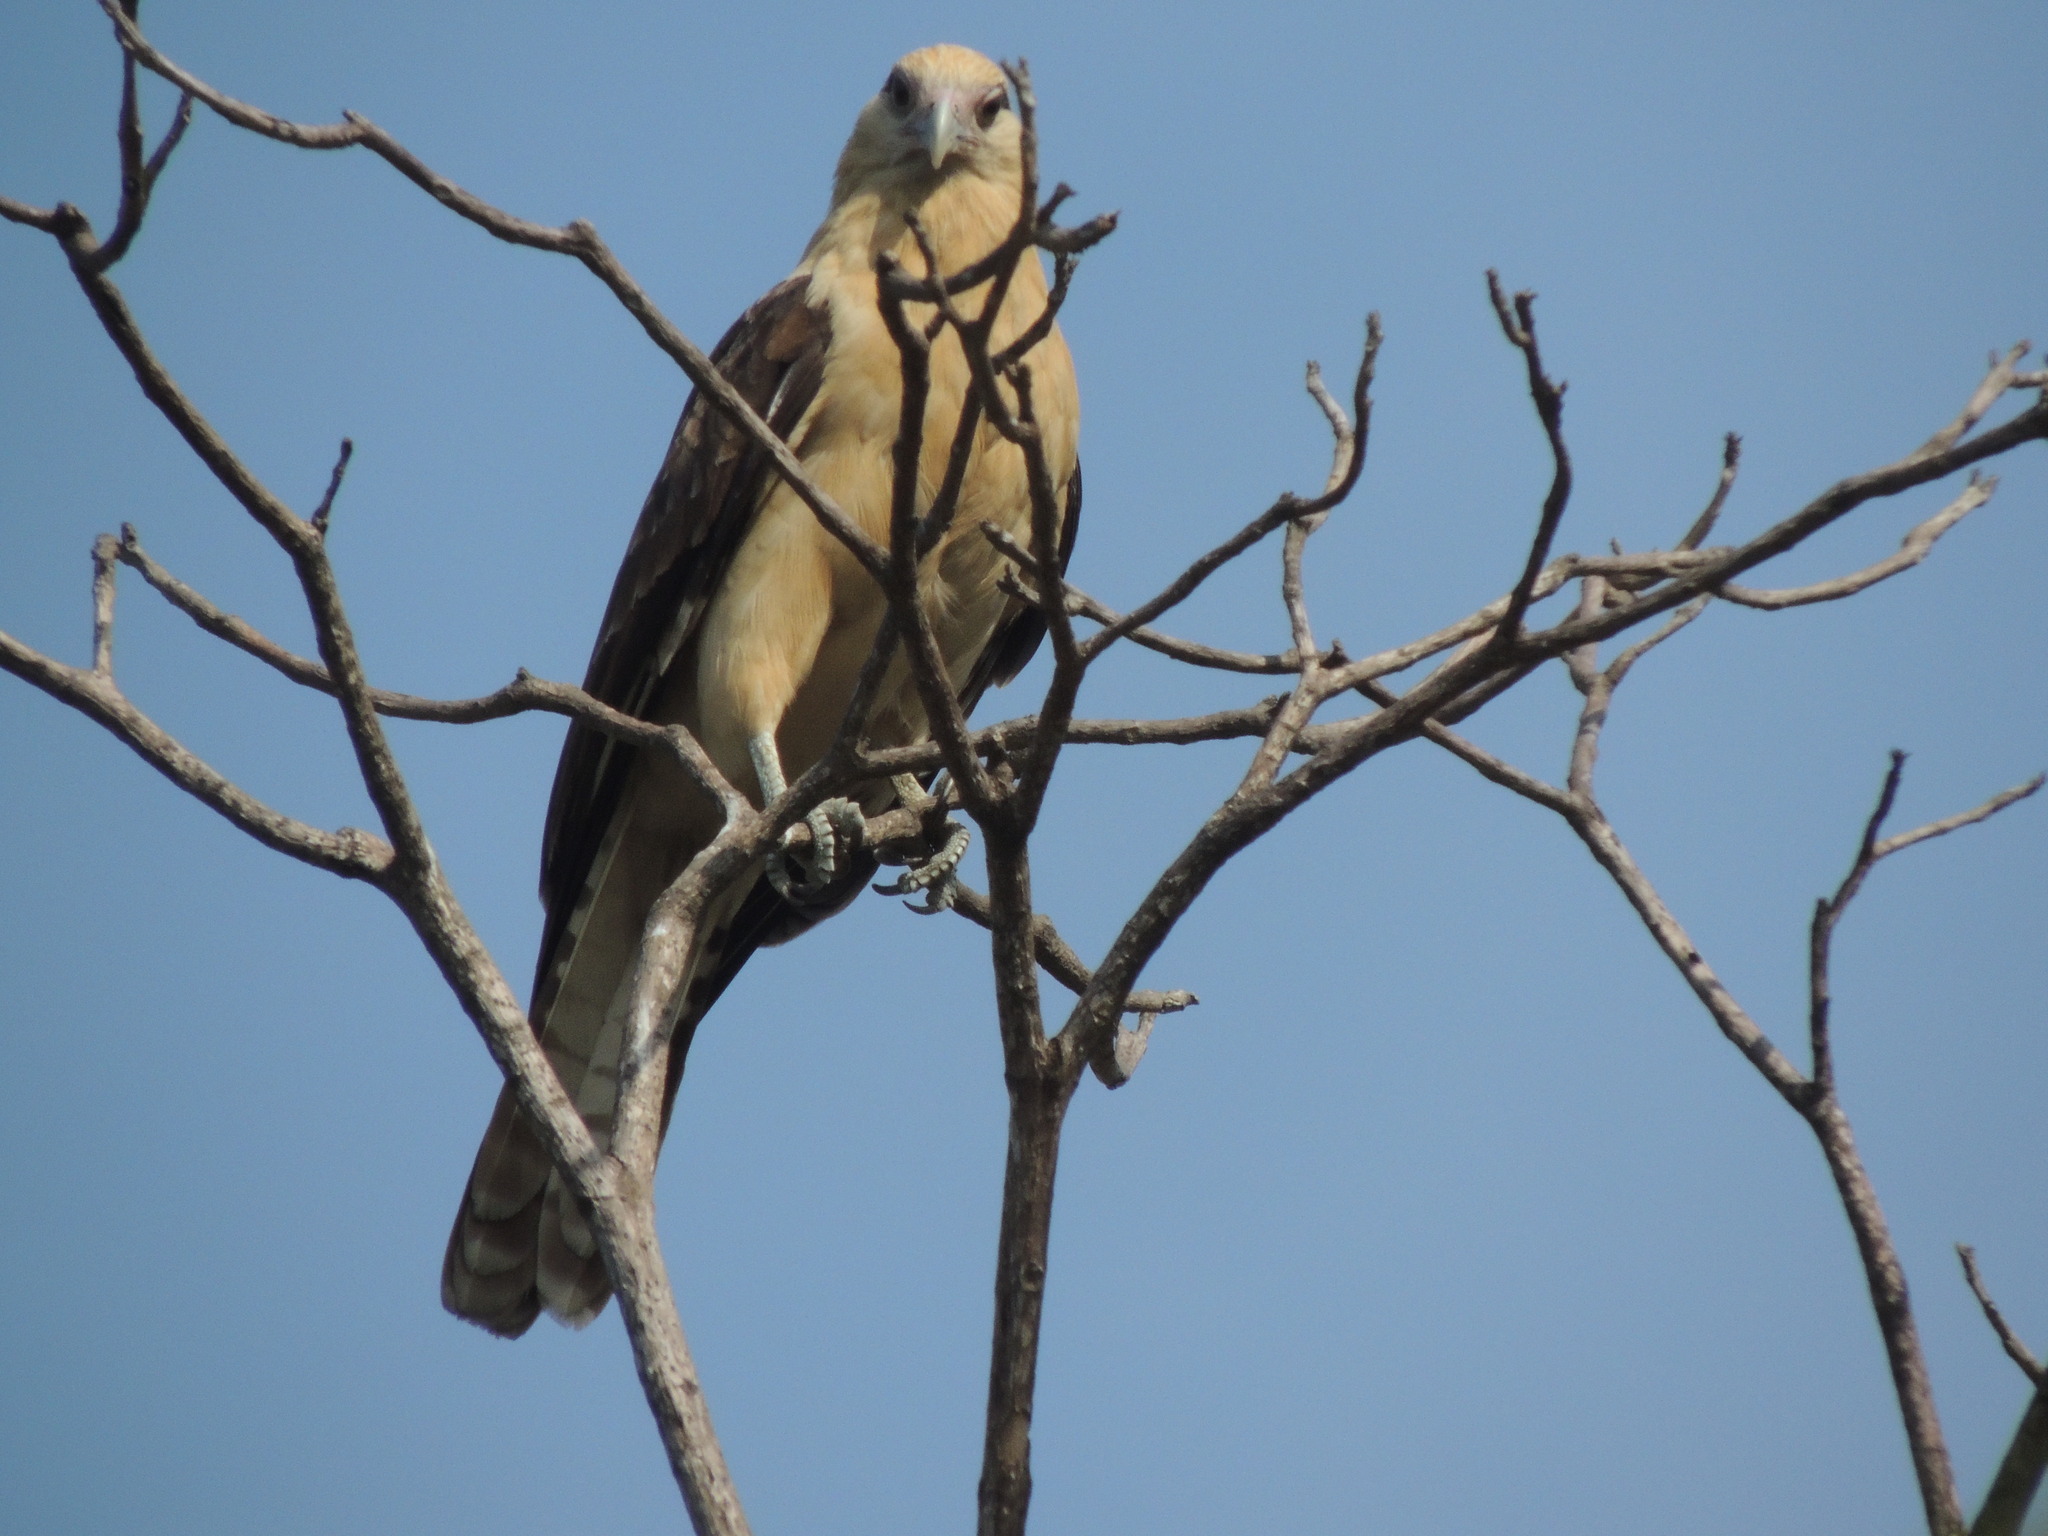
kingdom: Animalia
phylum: Chordata
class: Aves
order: Falconiformes
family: Falconidae
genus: Daptrius
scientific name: Daptrius
